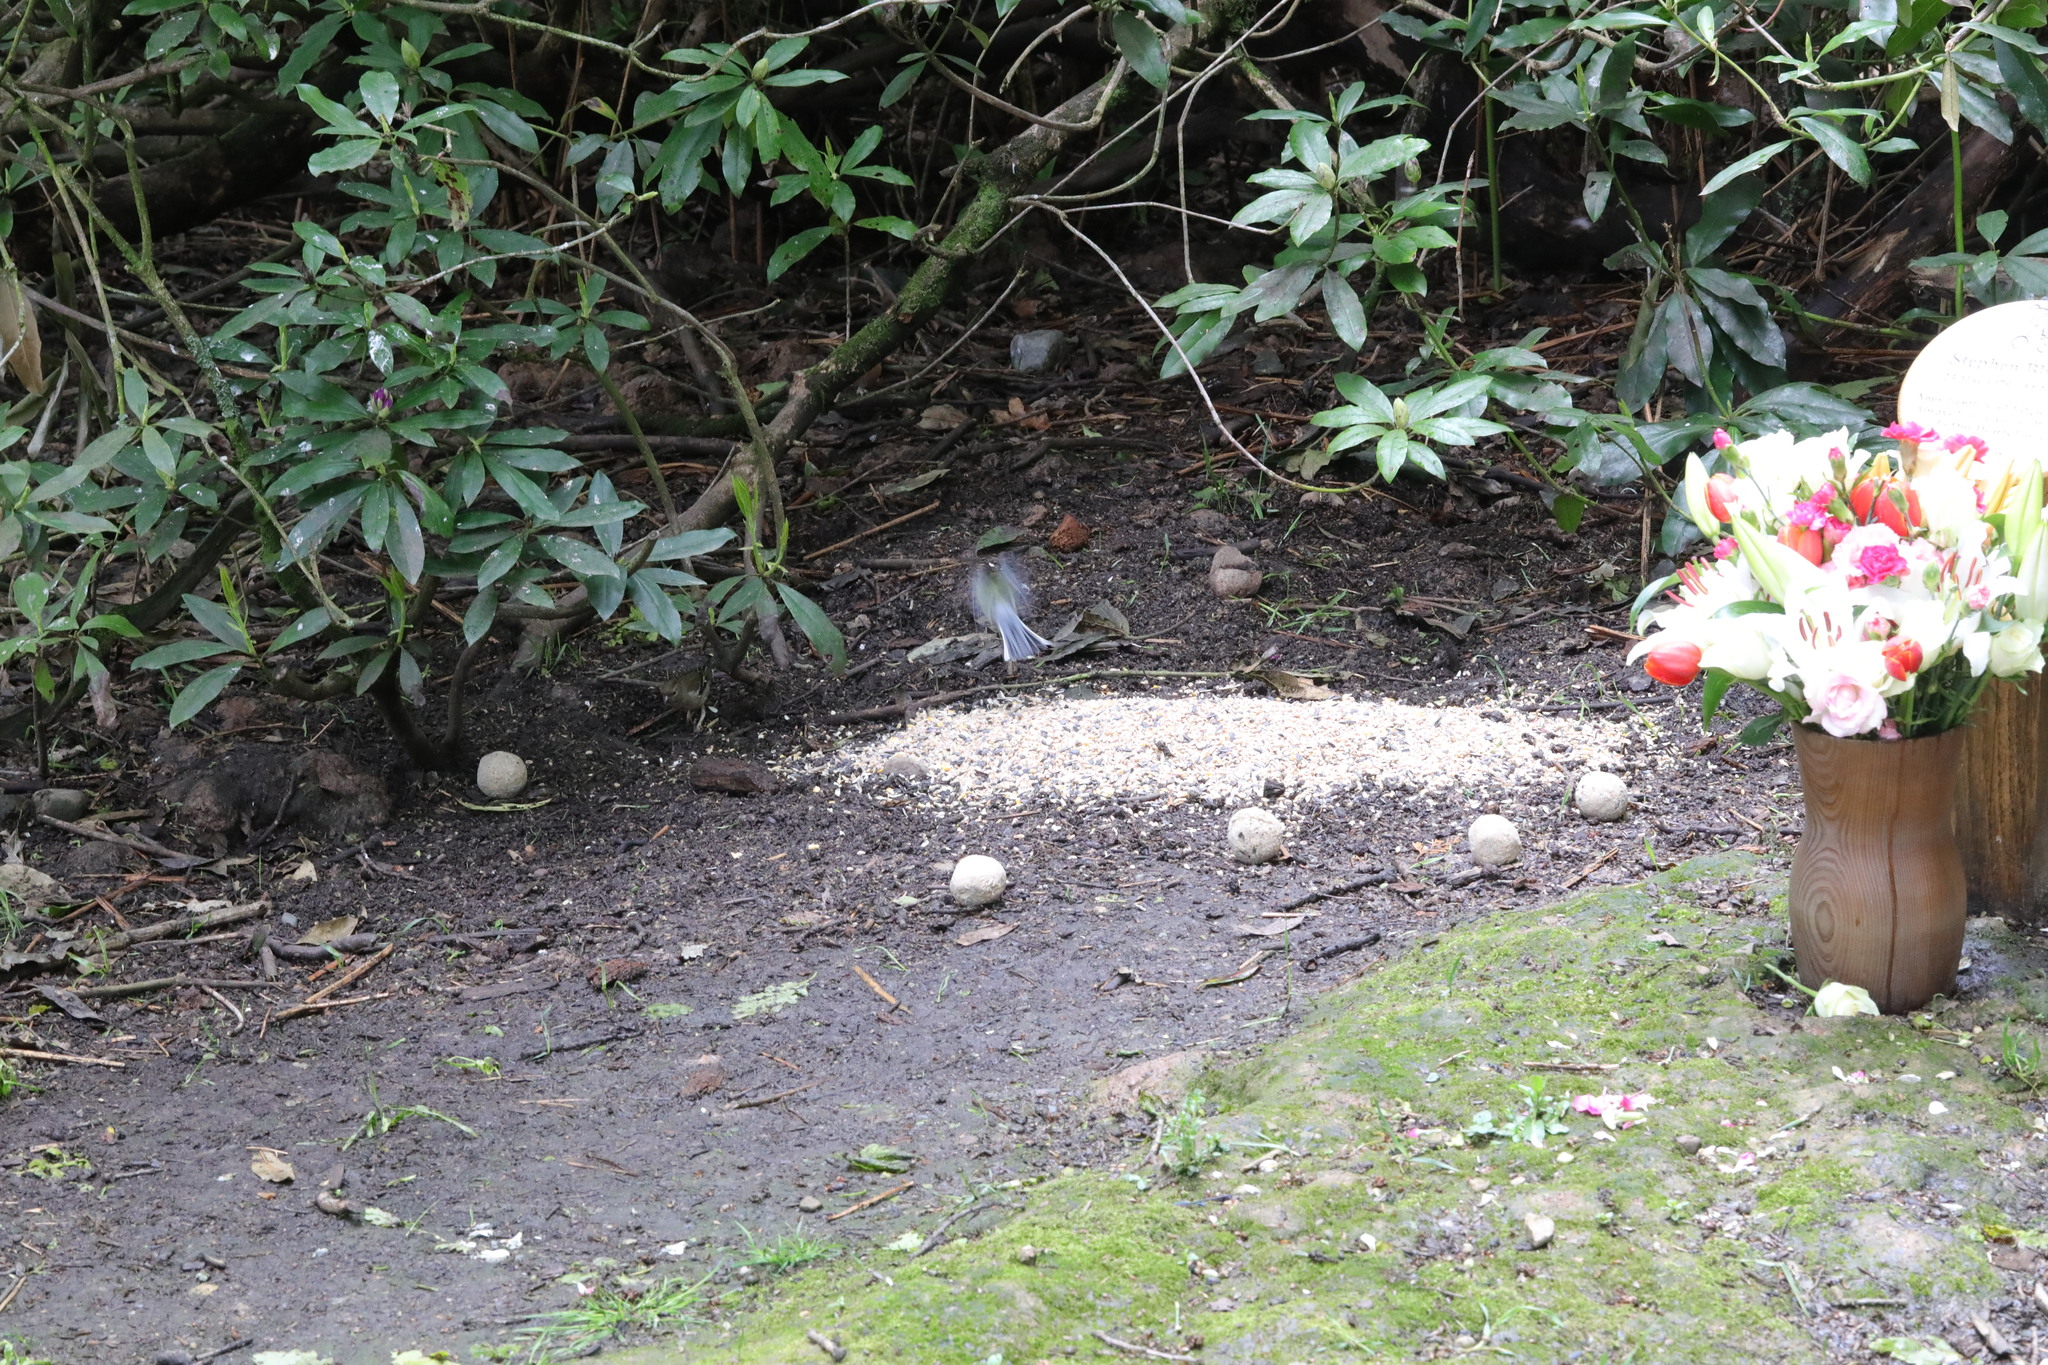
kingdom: Animalia
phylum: Chordata
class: Aves
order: Passeriformes
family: Fringillidae
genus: Fringilla
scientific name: Fringilla coelebs
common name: Common chaffinch
